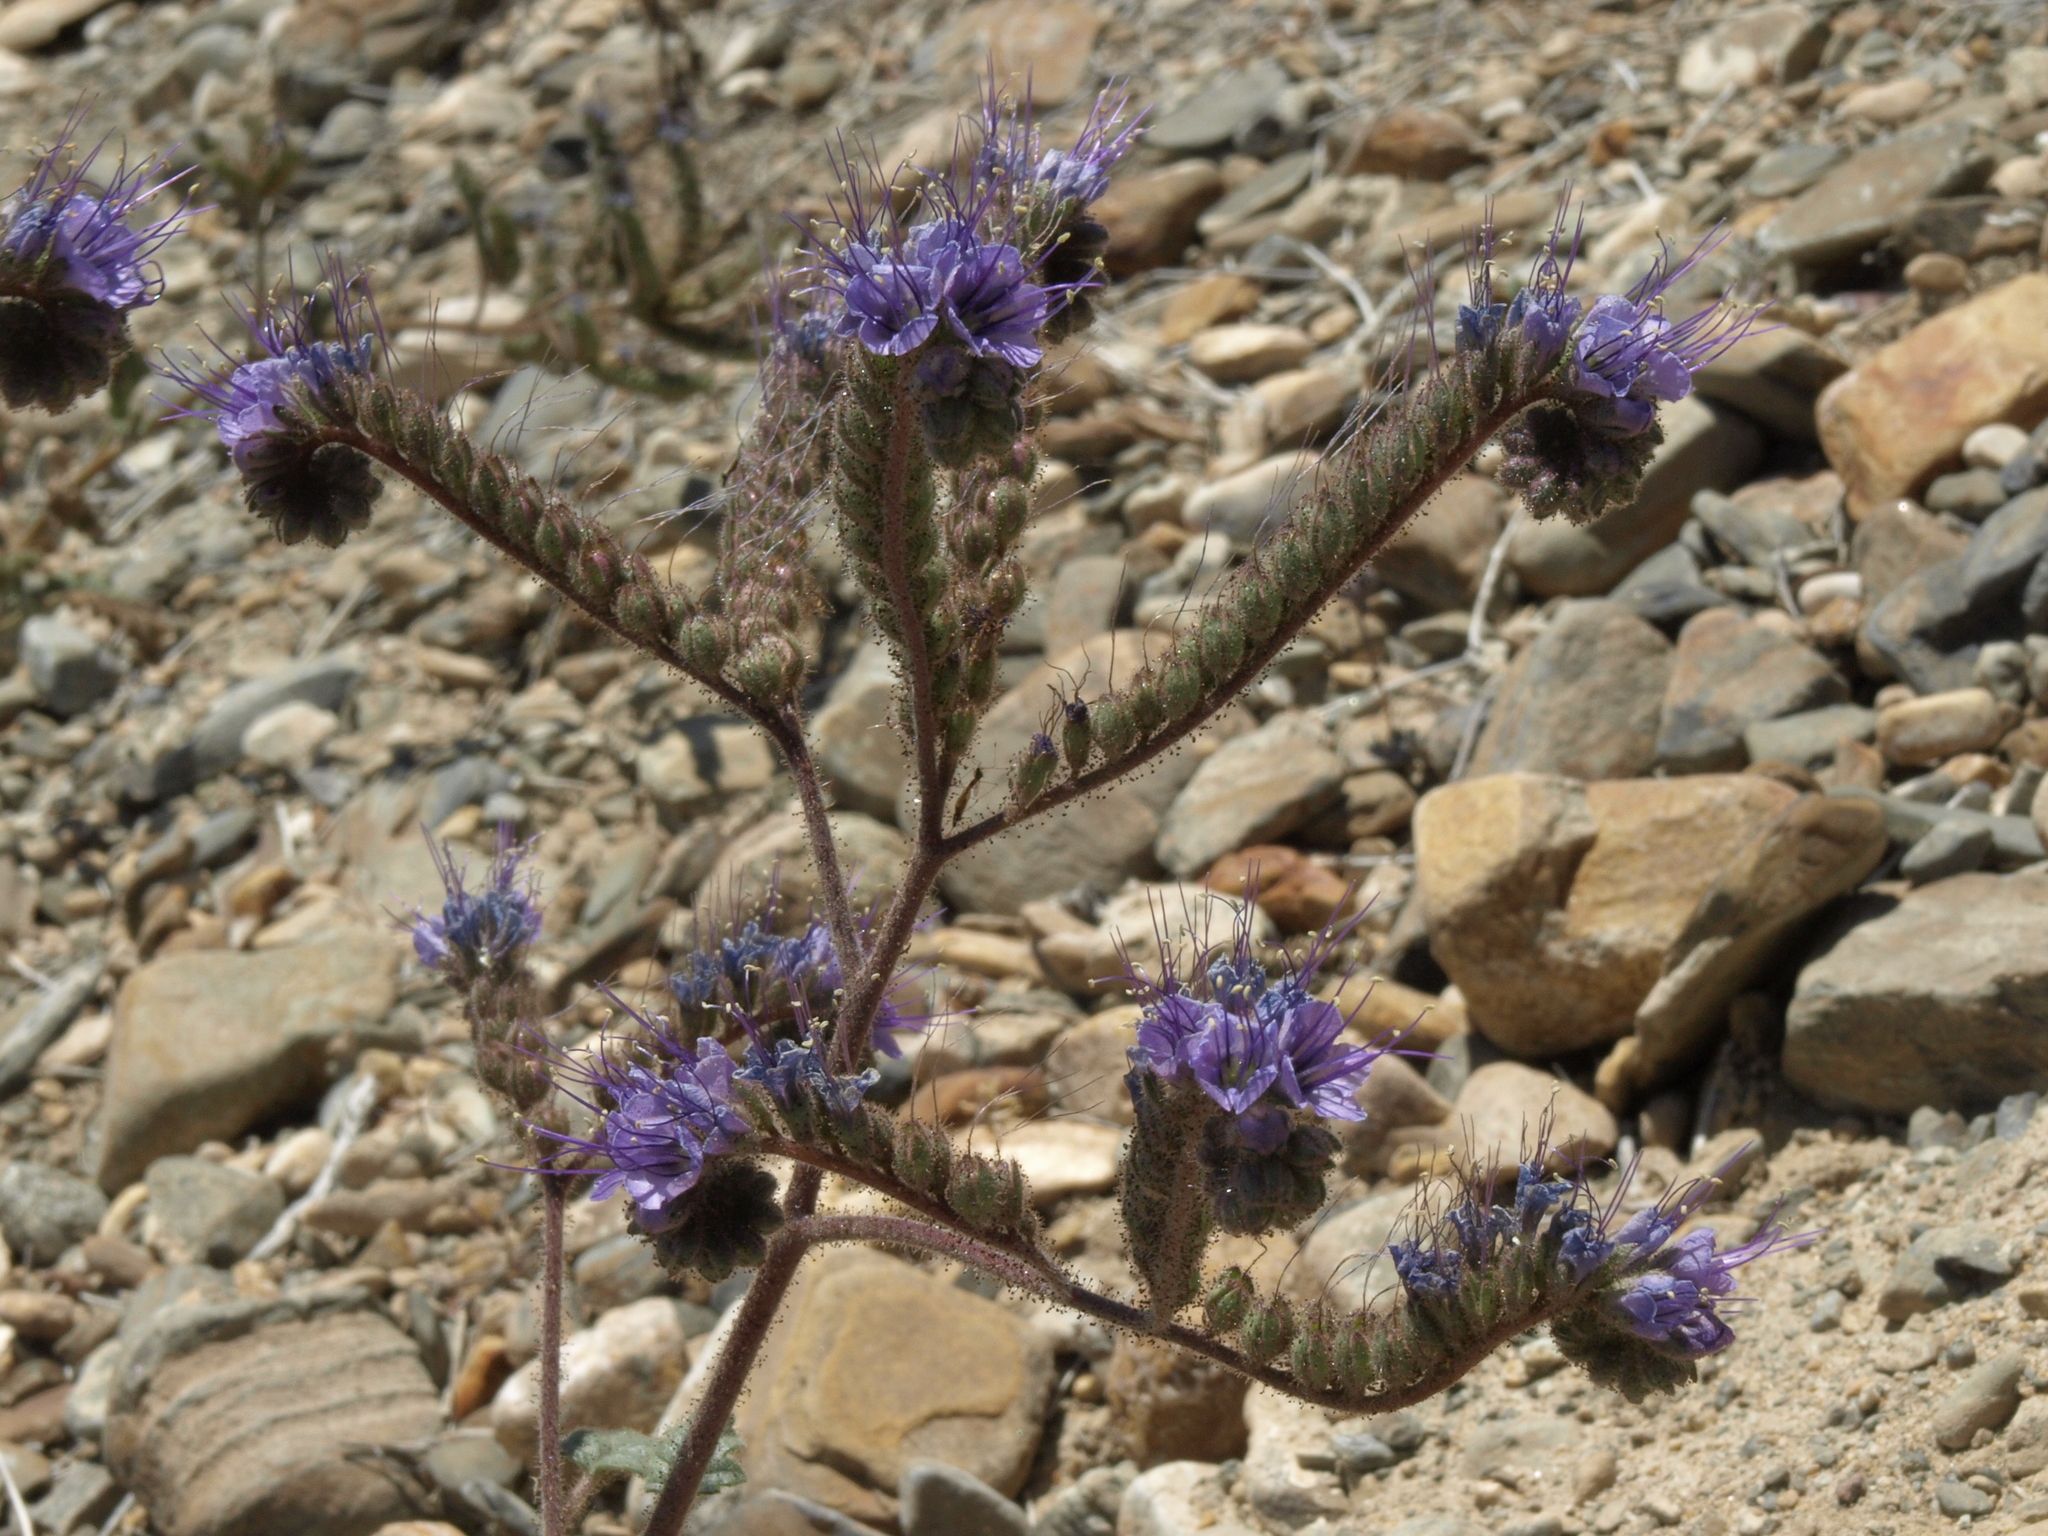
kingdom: Plantae
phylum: Tracheophyta
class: Magnoliopsida
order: Boraginales
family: Hydrophyllaceae
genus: Phacelia
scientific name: Phacelia crenulata
